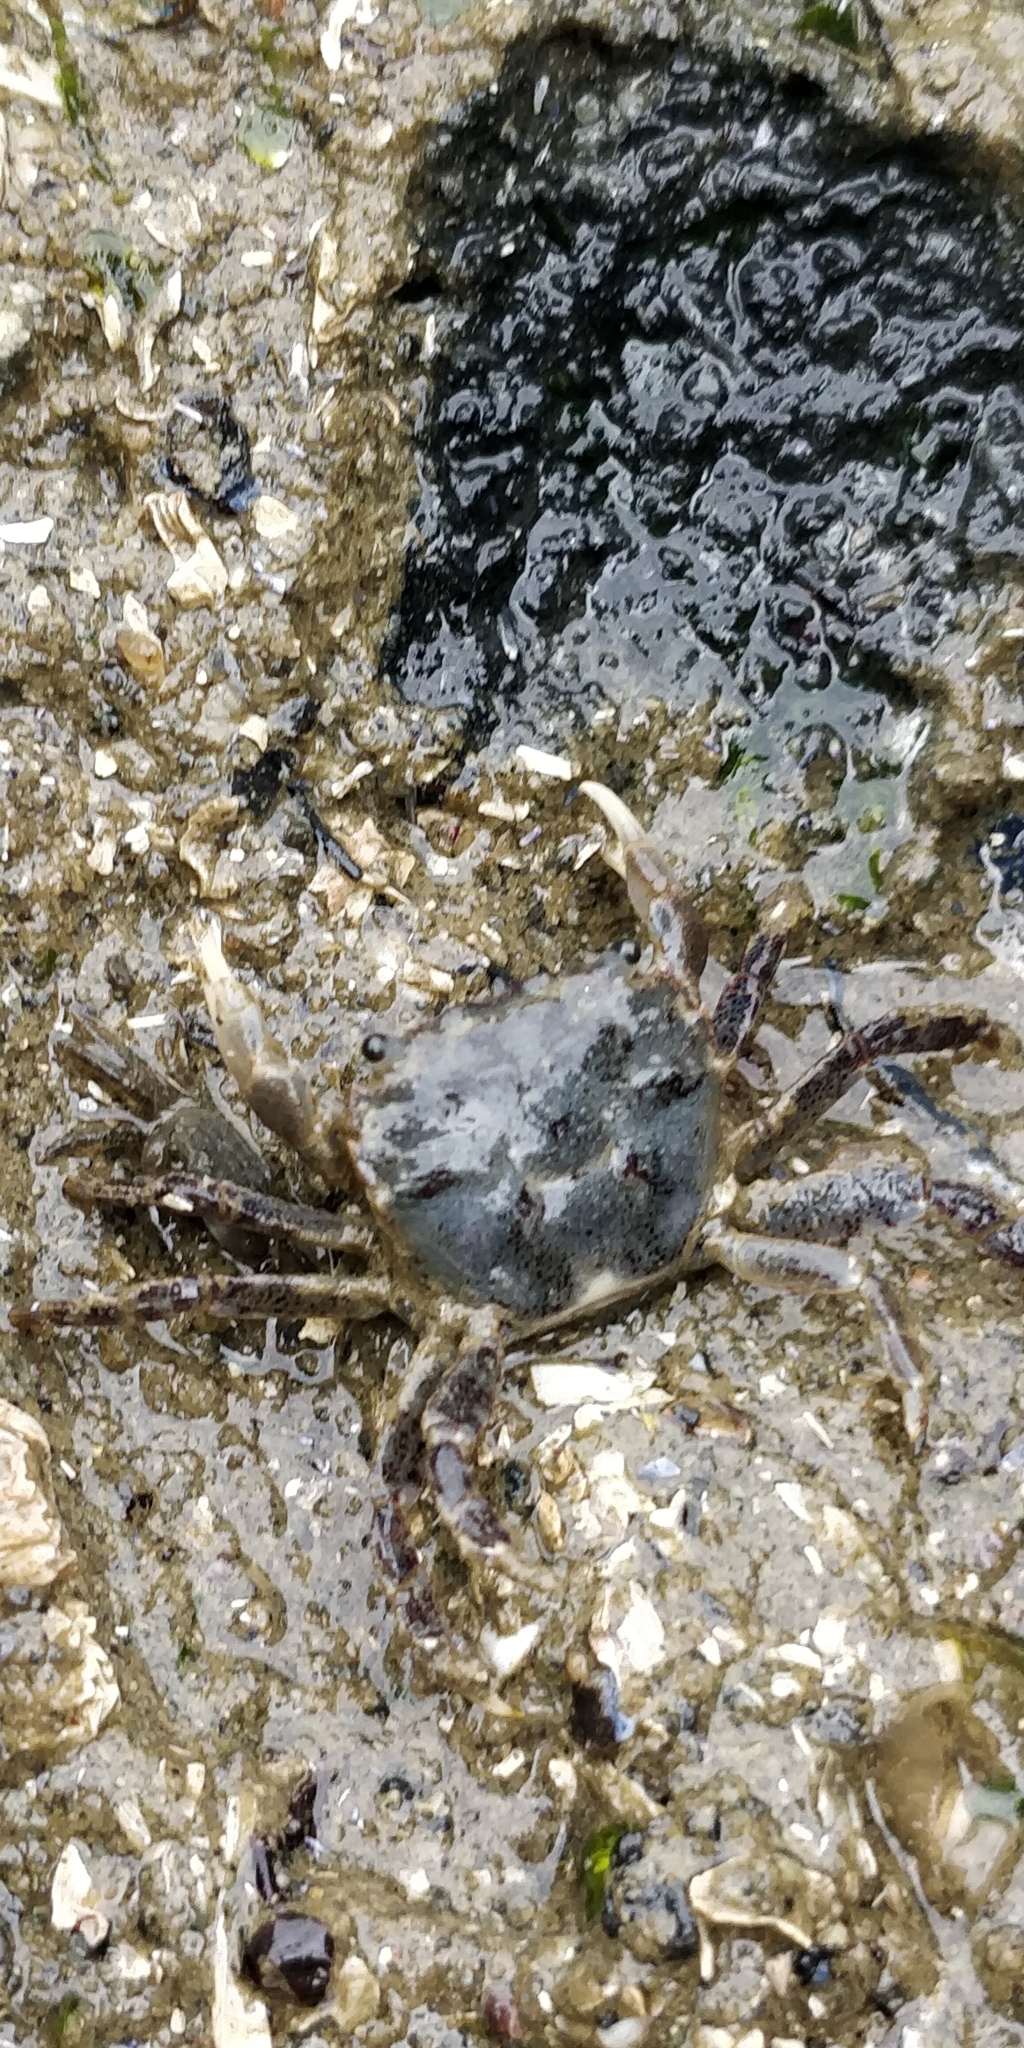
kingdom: Animalia
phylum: Arthropoda
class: Malacostraca
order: Decapoda
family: Varunidae
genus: Hemigrapsus
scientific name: Hemigrapsus oregonensis
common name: Yellow shore crab
